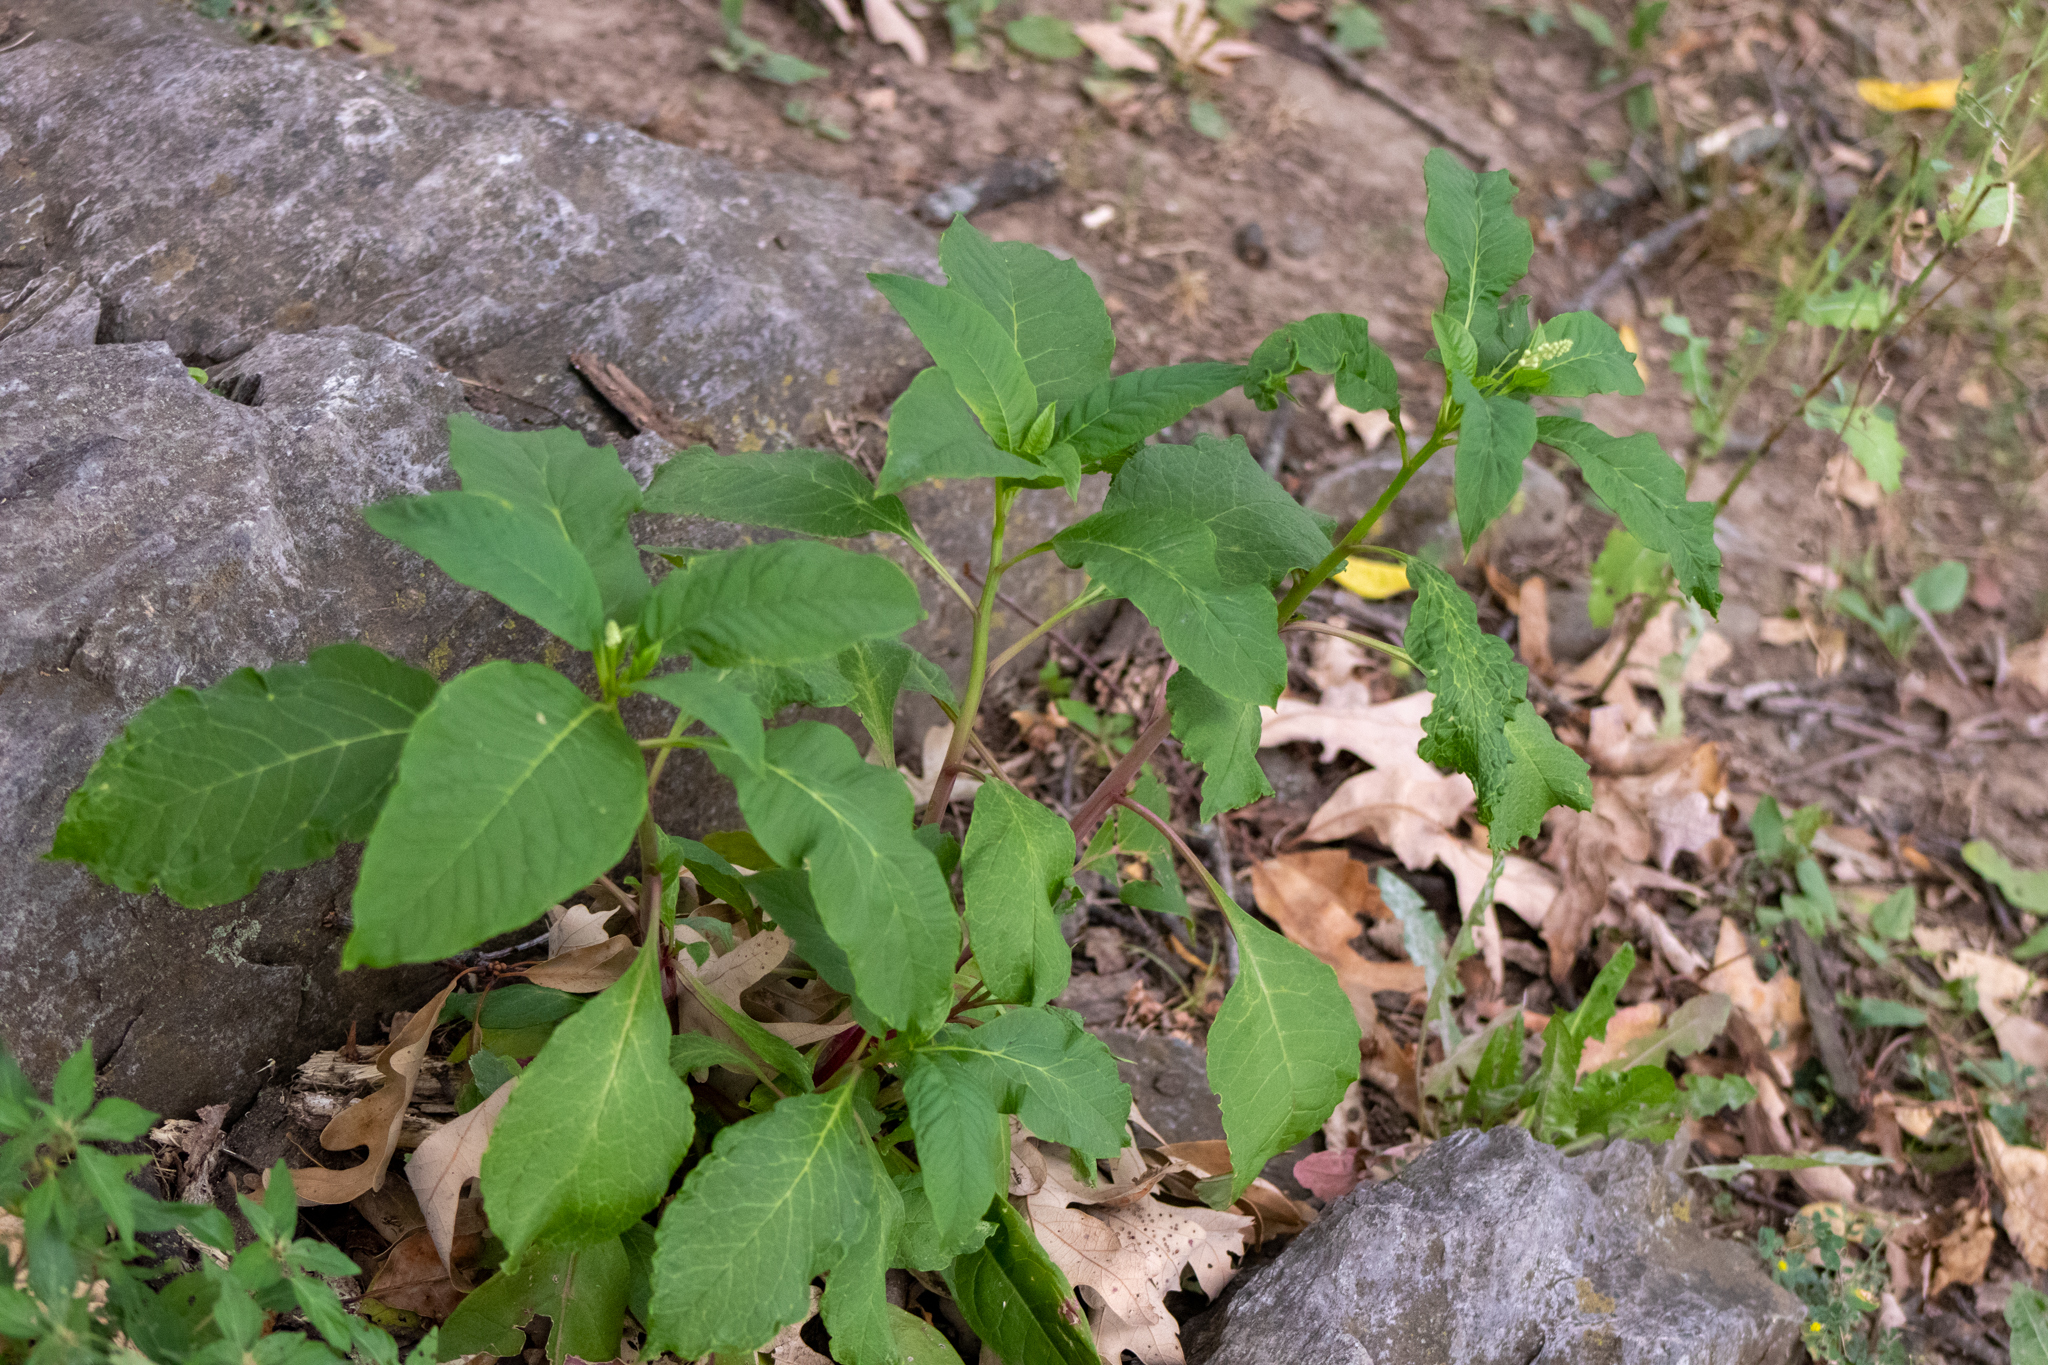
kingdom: Plantae
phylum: Tracheophyta
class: Magnoliopsida
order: Caryophyllales
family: Phytolaccaceae
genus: Phytolacca
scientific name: Phytolacca americana
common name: American pokeweed
